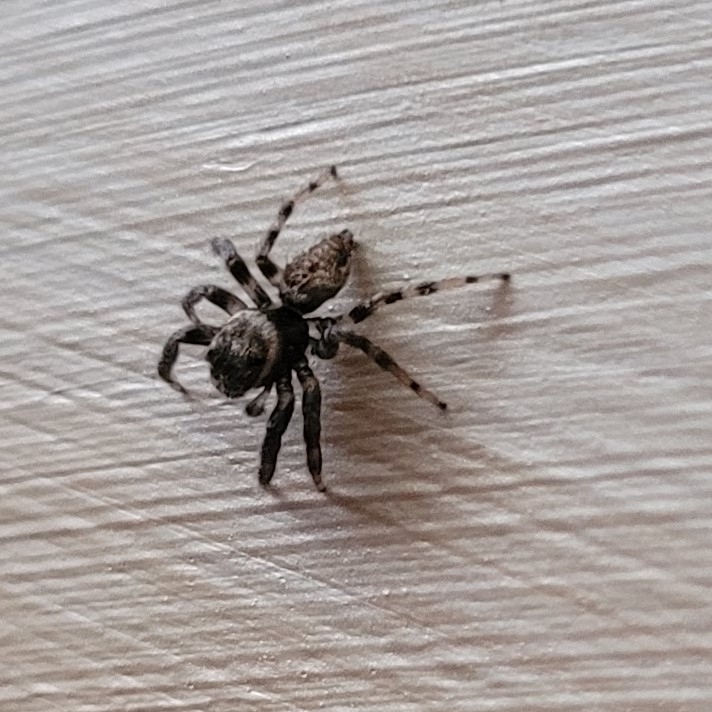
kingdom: Animalia
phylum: Arthropoda
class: Arachnida
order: Araneae
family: Salticidae
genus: Evarcha
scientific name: Evarcha jucunda
